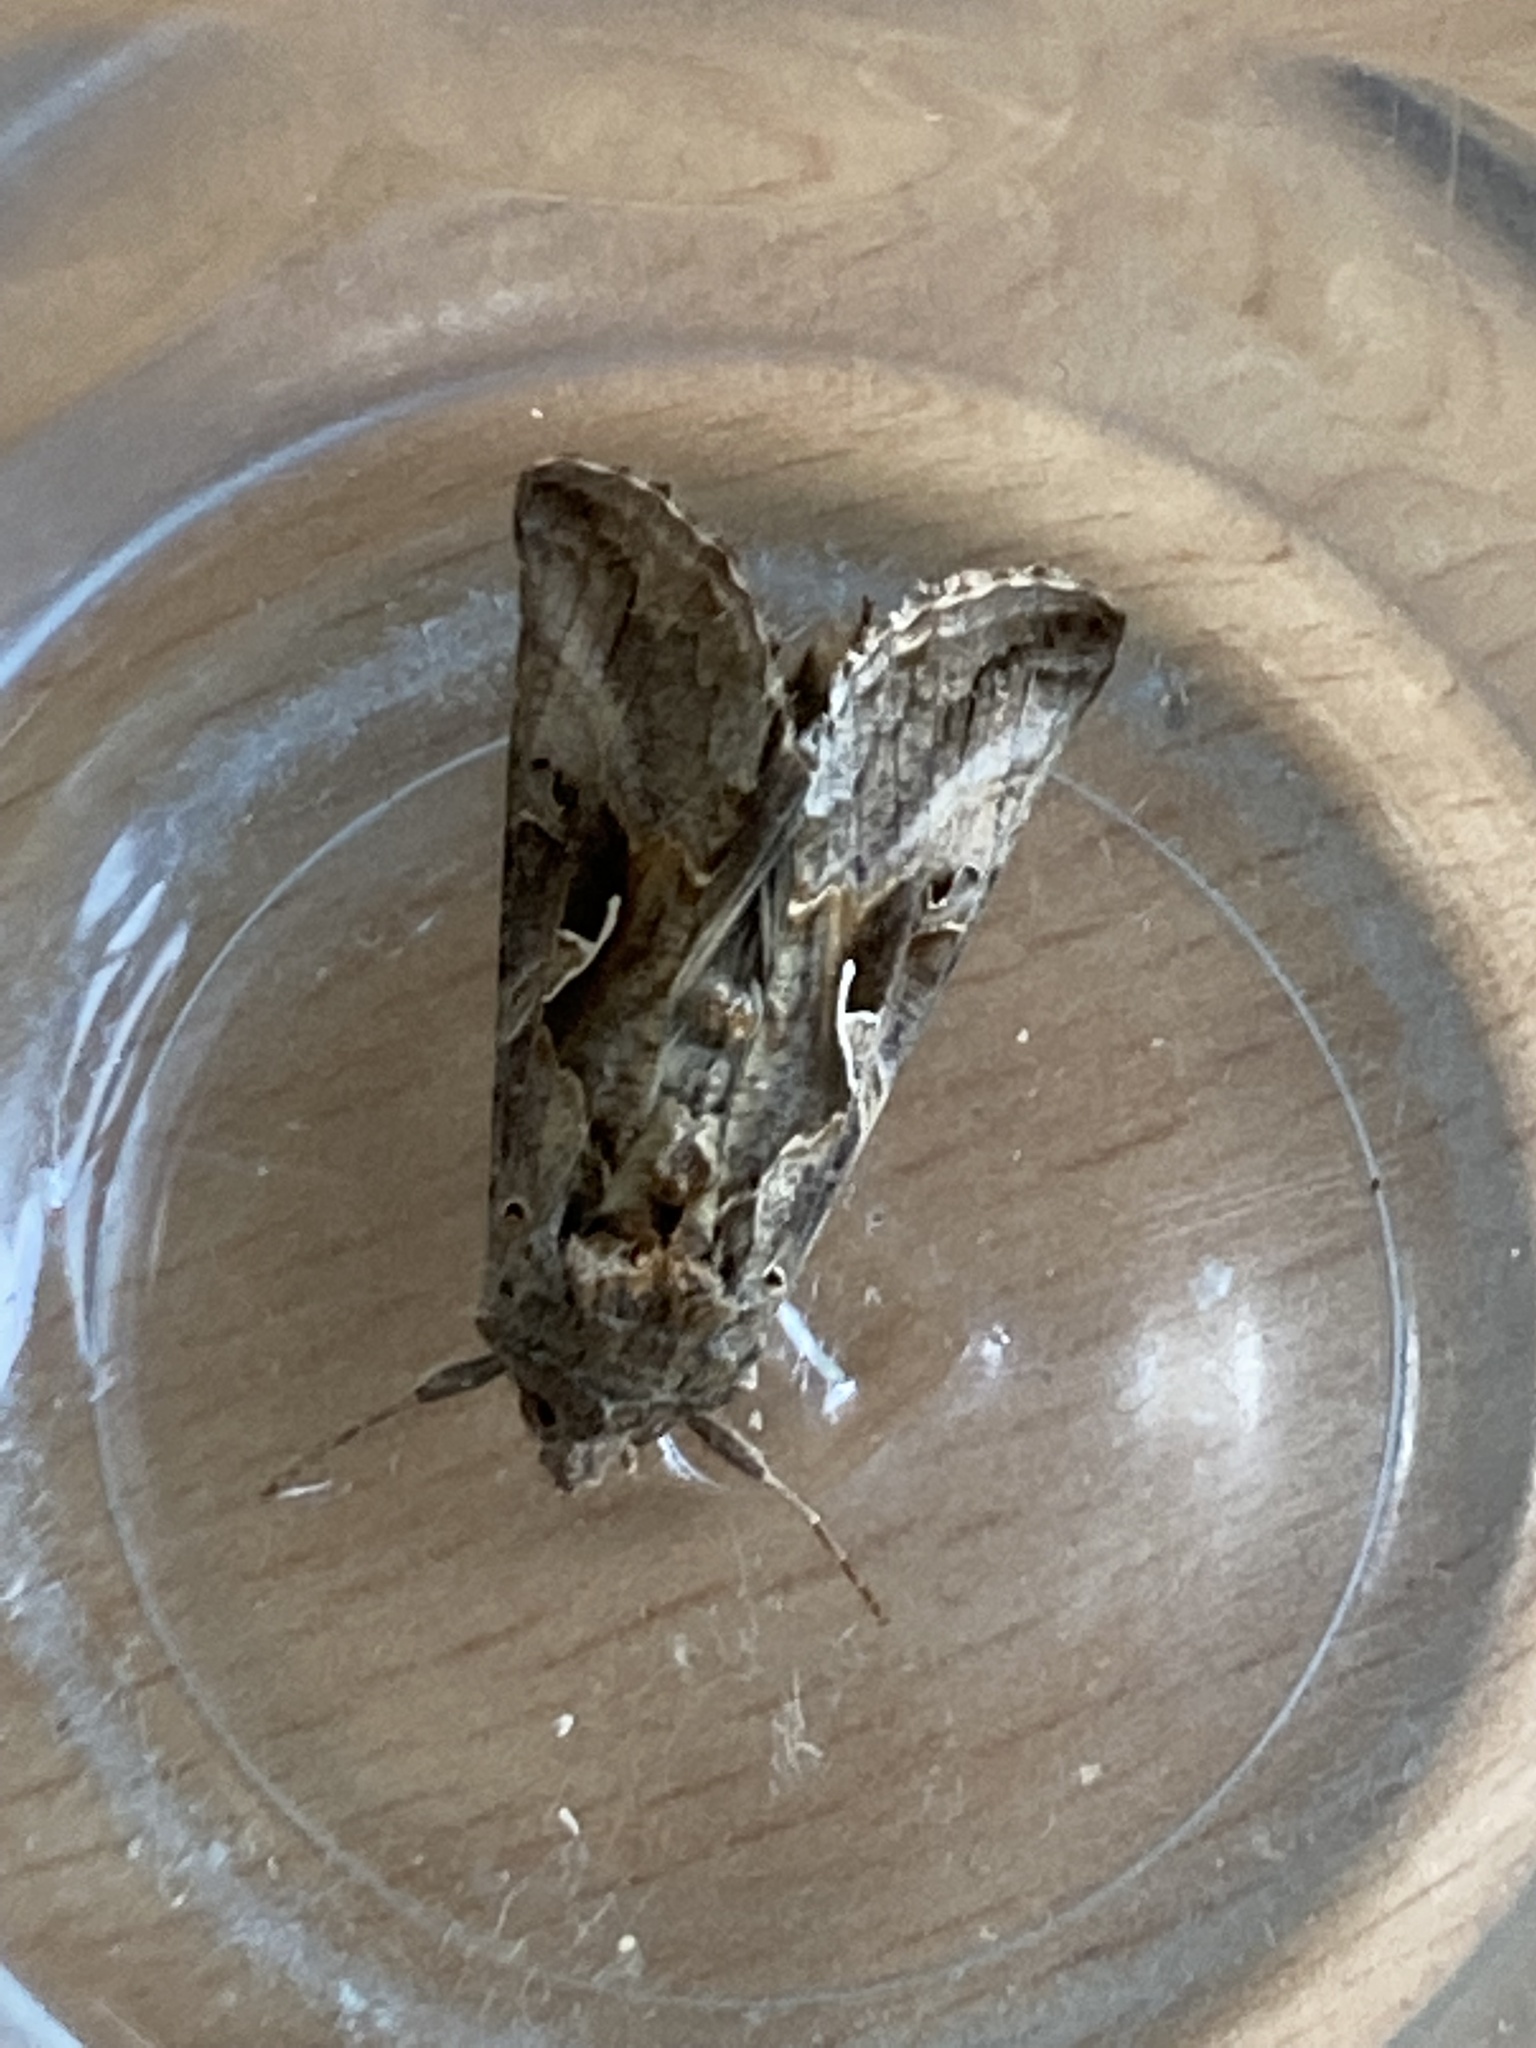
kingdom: Animalia
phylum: Arthropoda
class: Insecta
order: Lepidoptera
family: Noctuidae
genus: Autographa
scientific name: Autographa gamma
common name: Silver y
